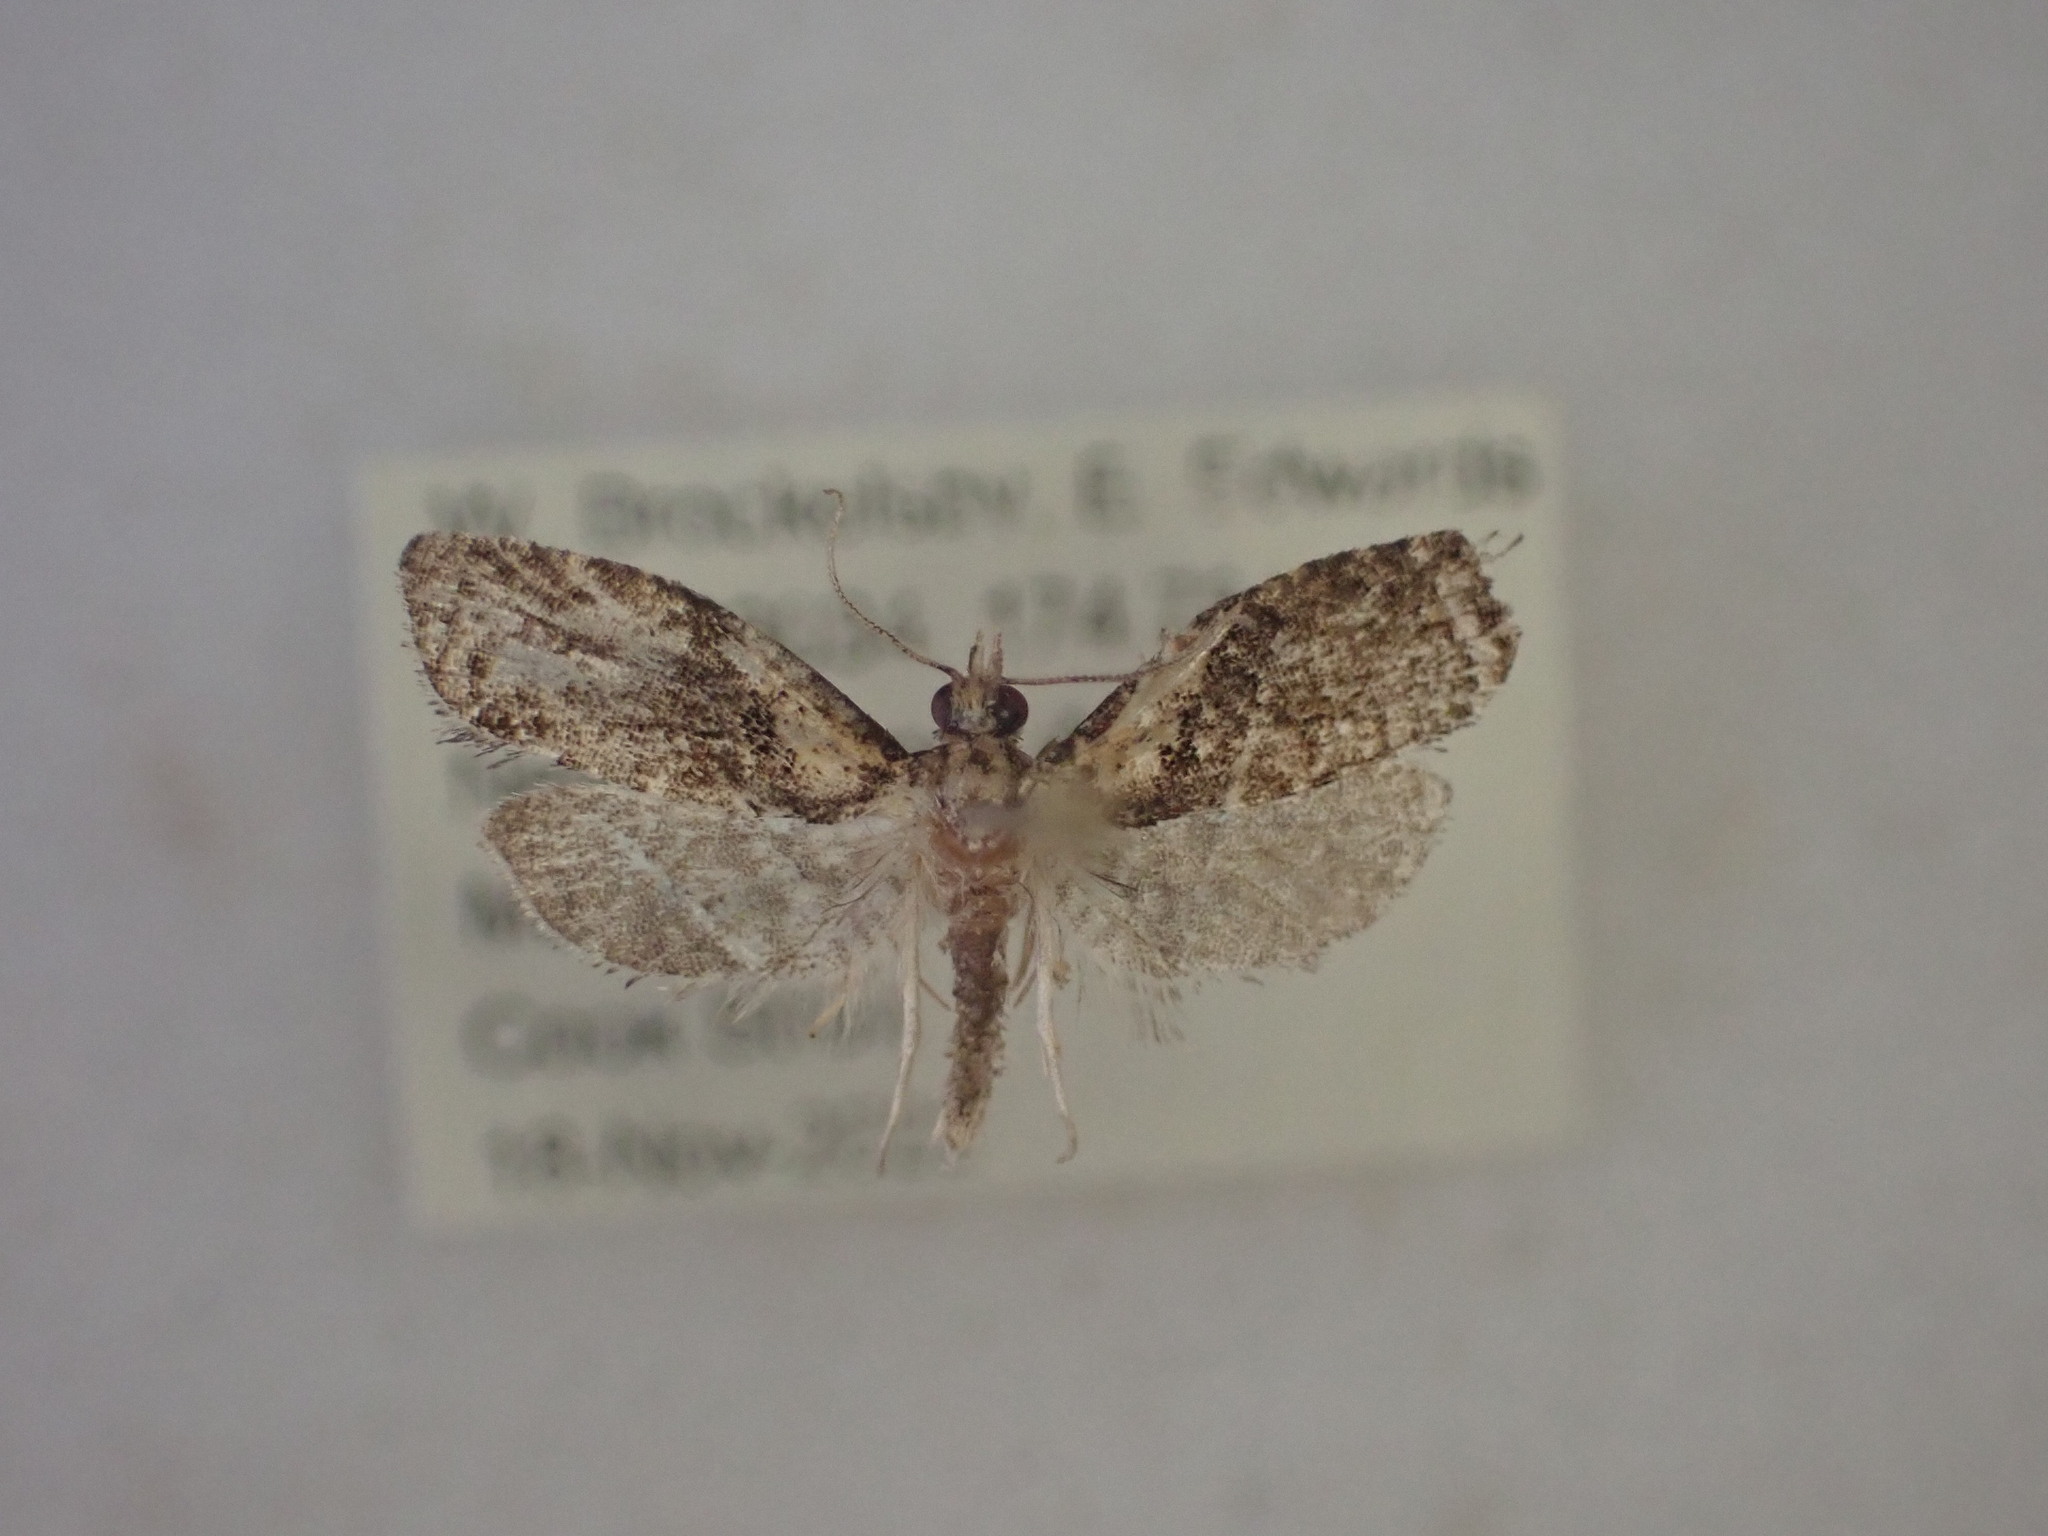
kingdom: Animalia
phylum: Arthropoda
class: Insecta
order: Lepidoptera
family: Tortricidae
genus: Capua
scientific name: Capua intractana
